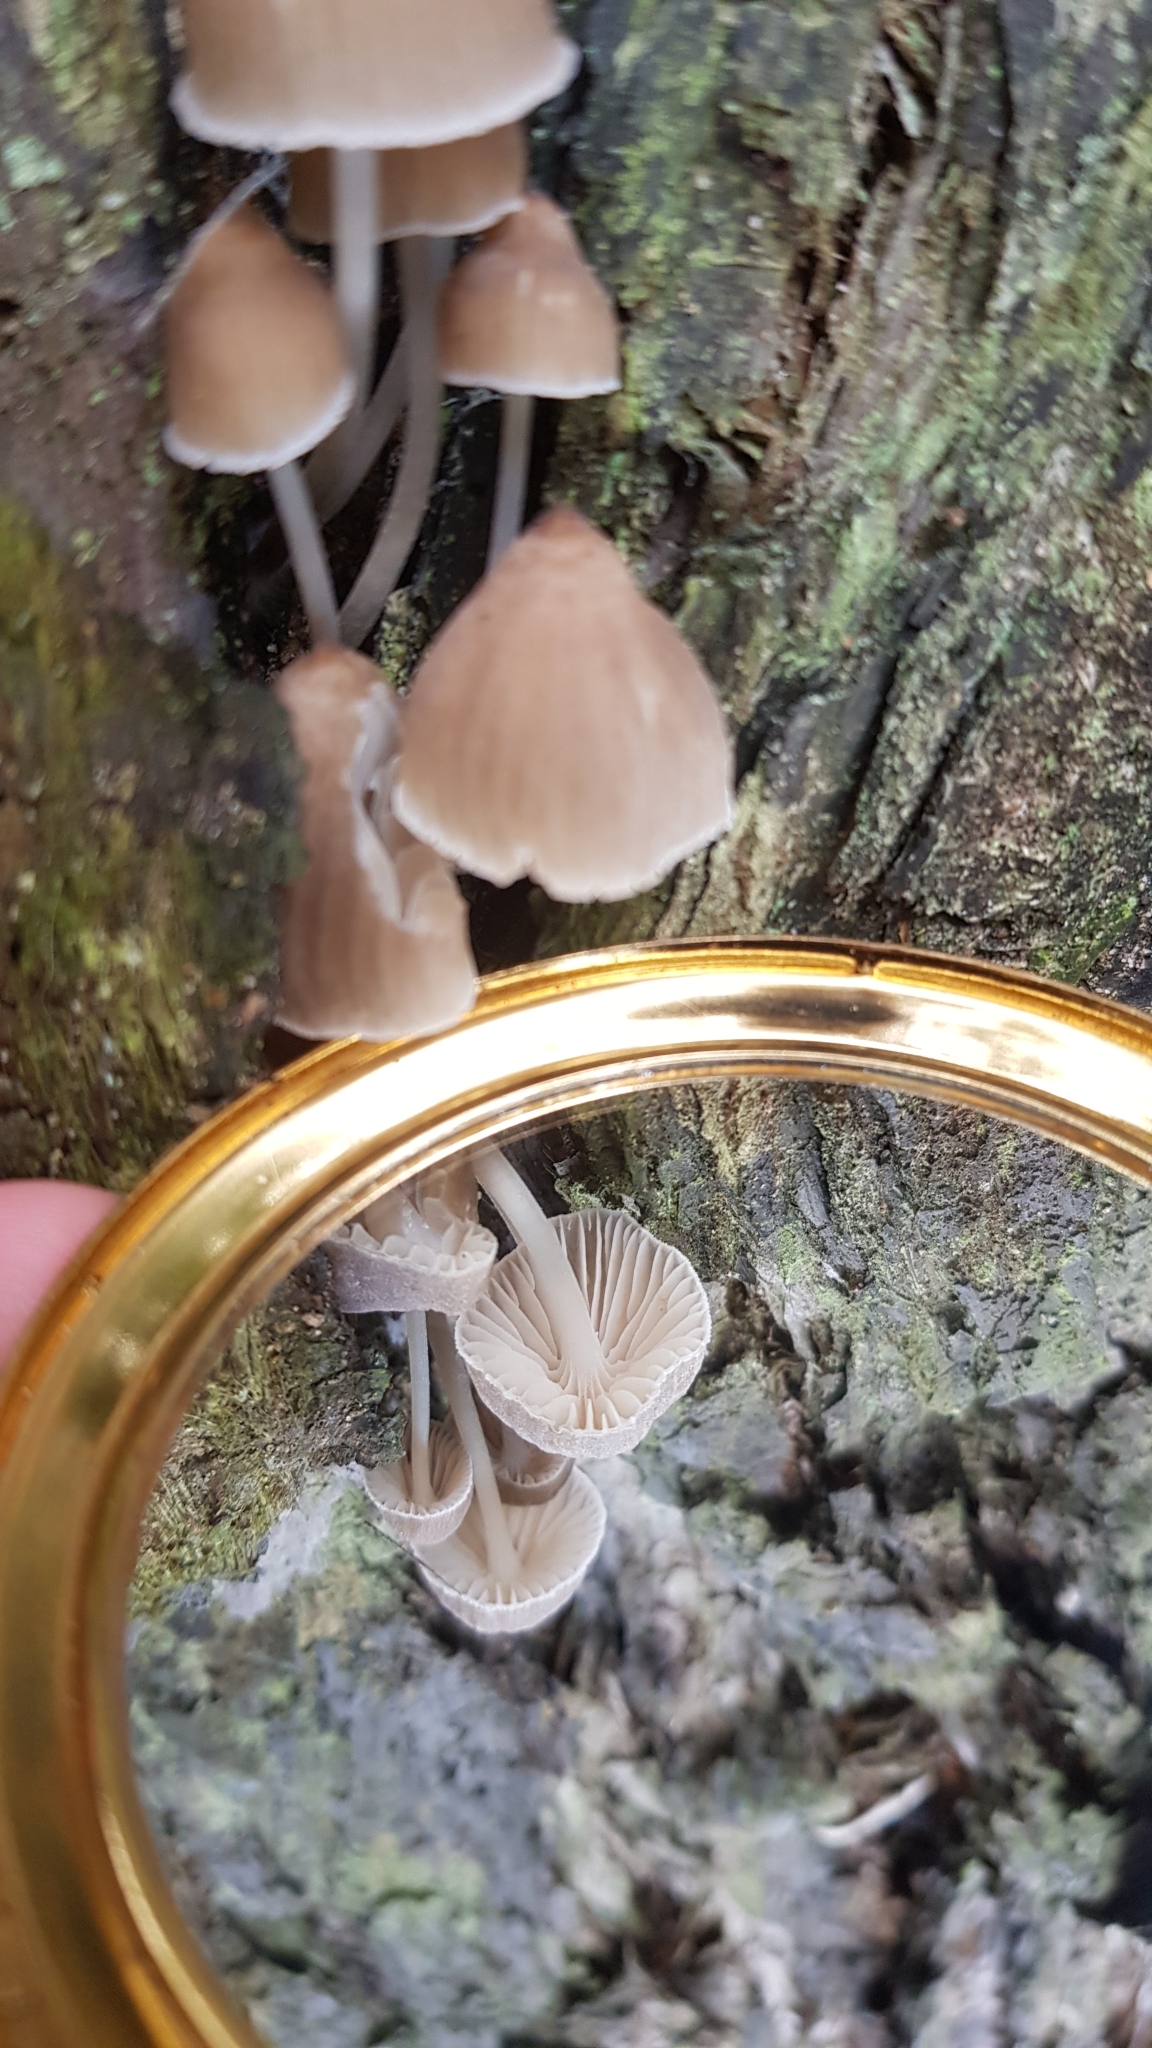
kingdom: Fungi
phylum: Basidiomycota
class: Agaricomycetes
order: Agaricales
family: Mycenaceae
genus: Mycena
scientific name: Mycena subgalericulata
